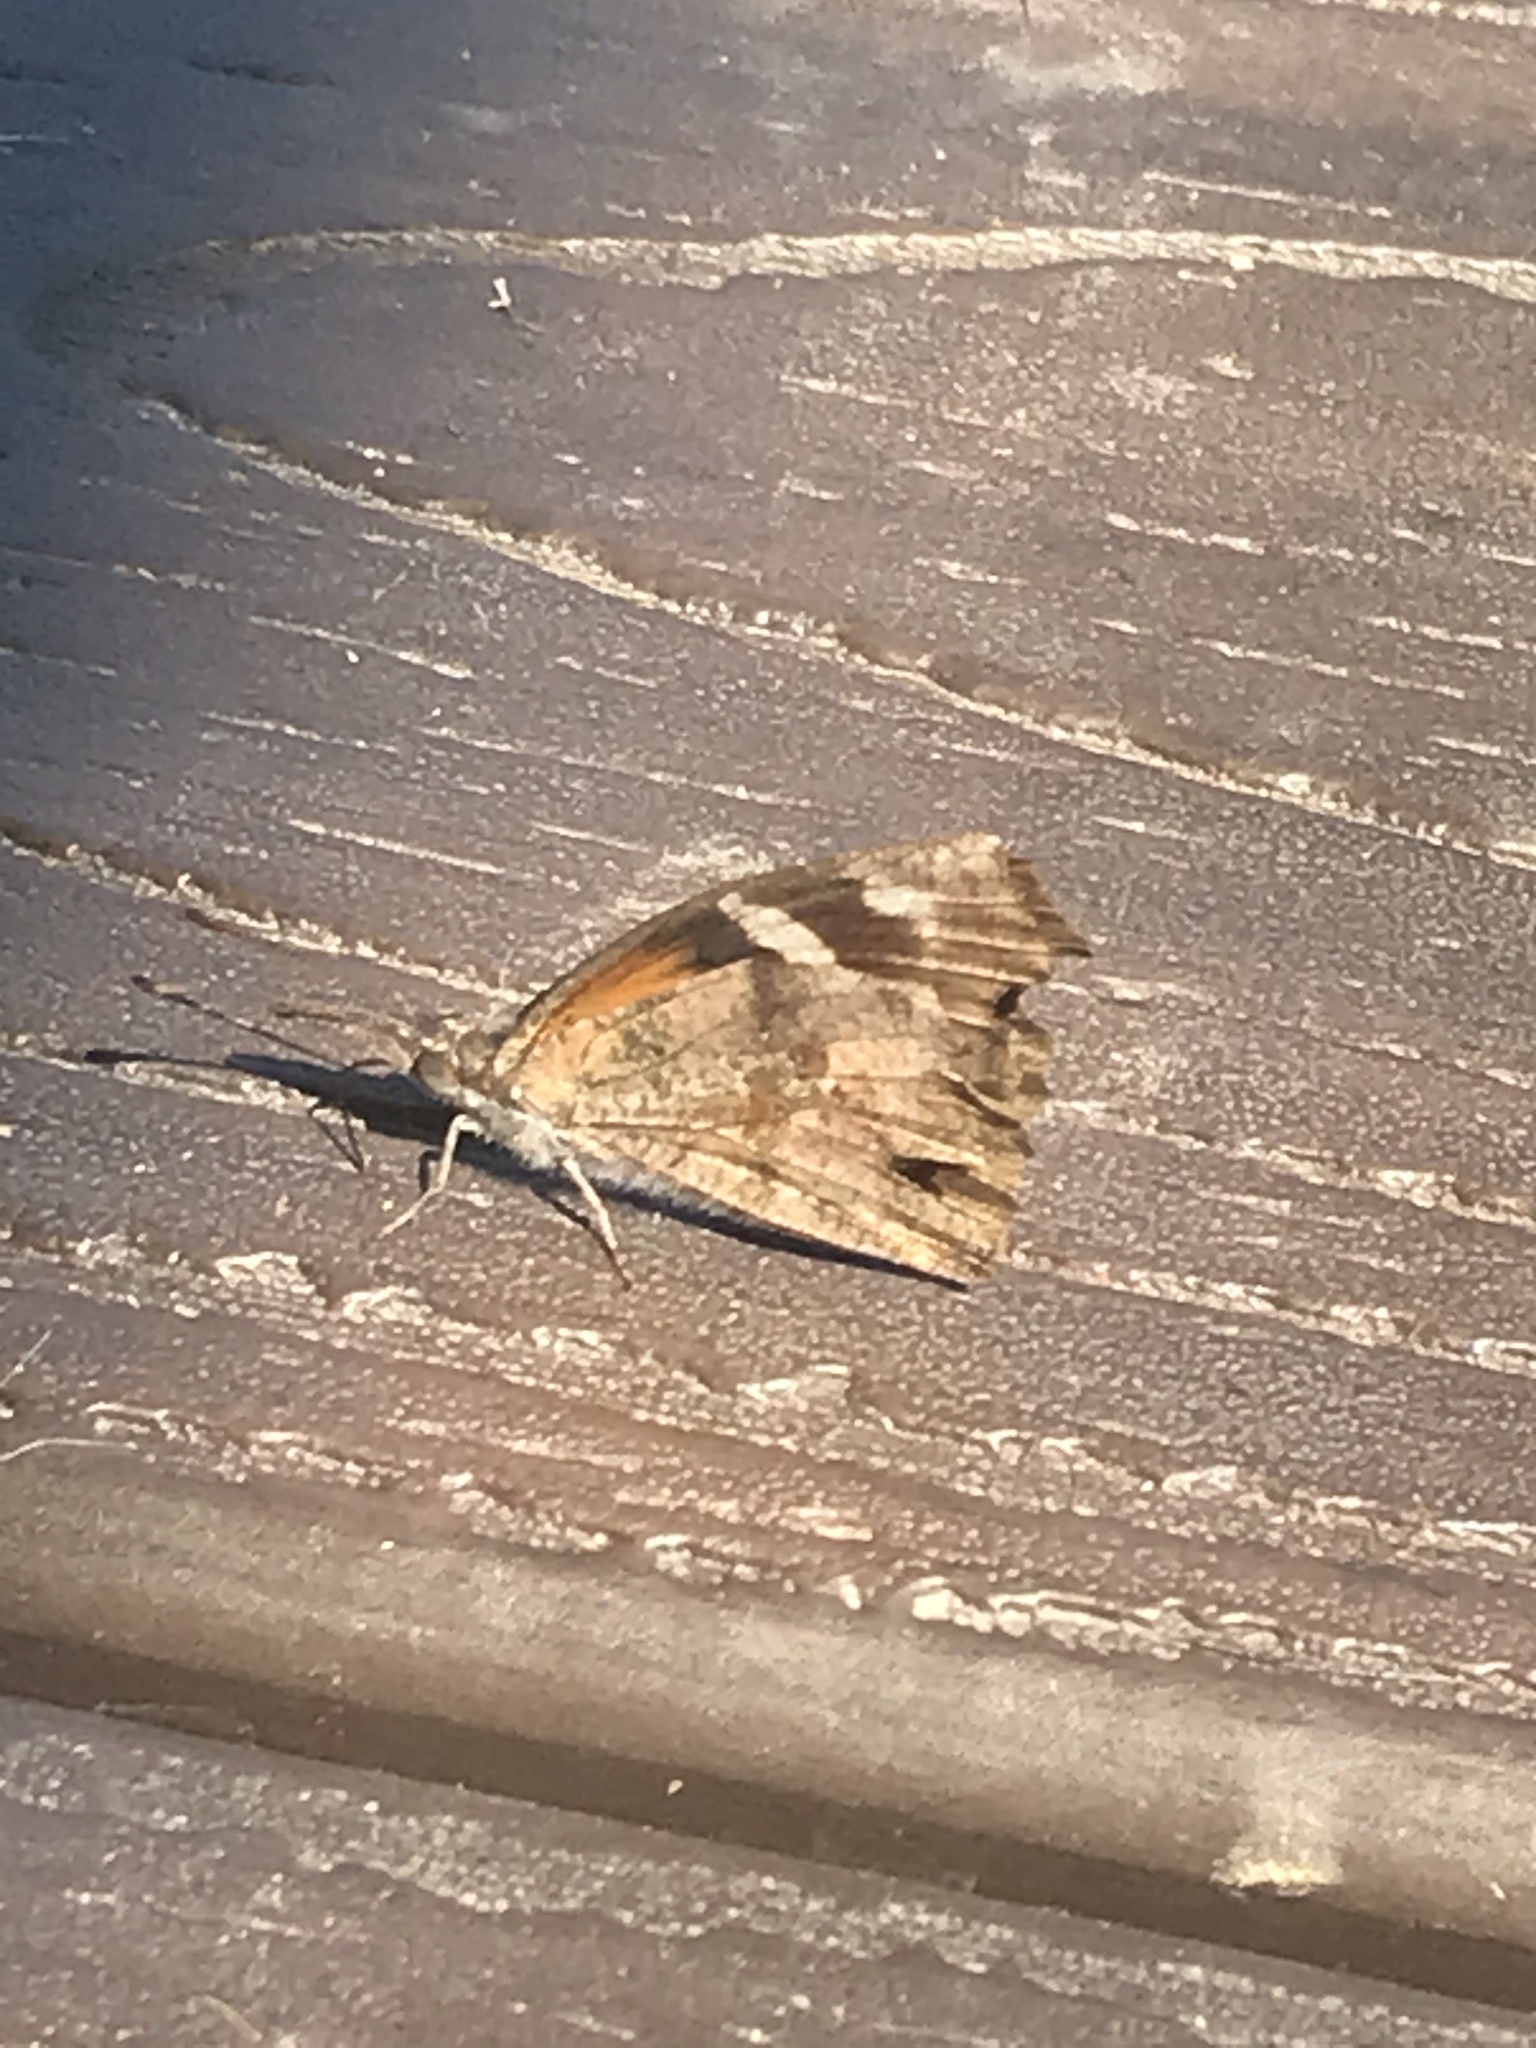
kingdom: Animalia
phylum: Arthropoda
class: Insecta
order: Lepidoptera
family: Nymphalidae
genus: Libytheana
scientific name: Libytheana carinenta
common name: American snout
